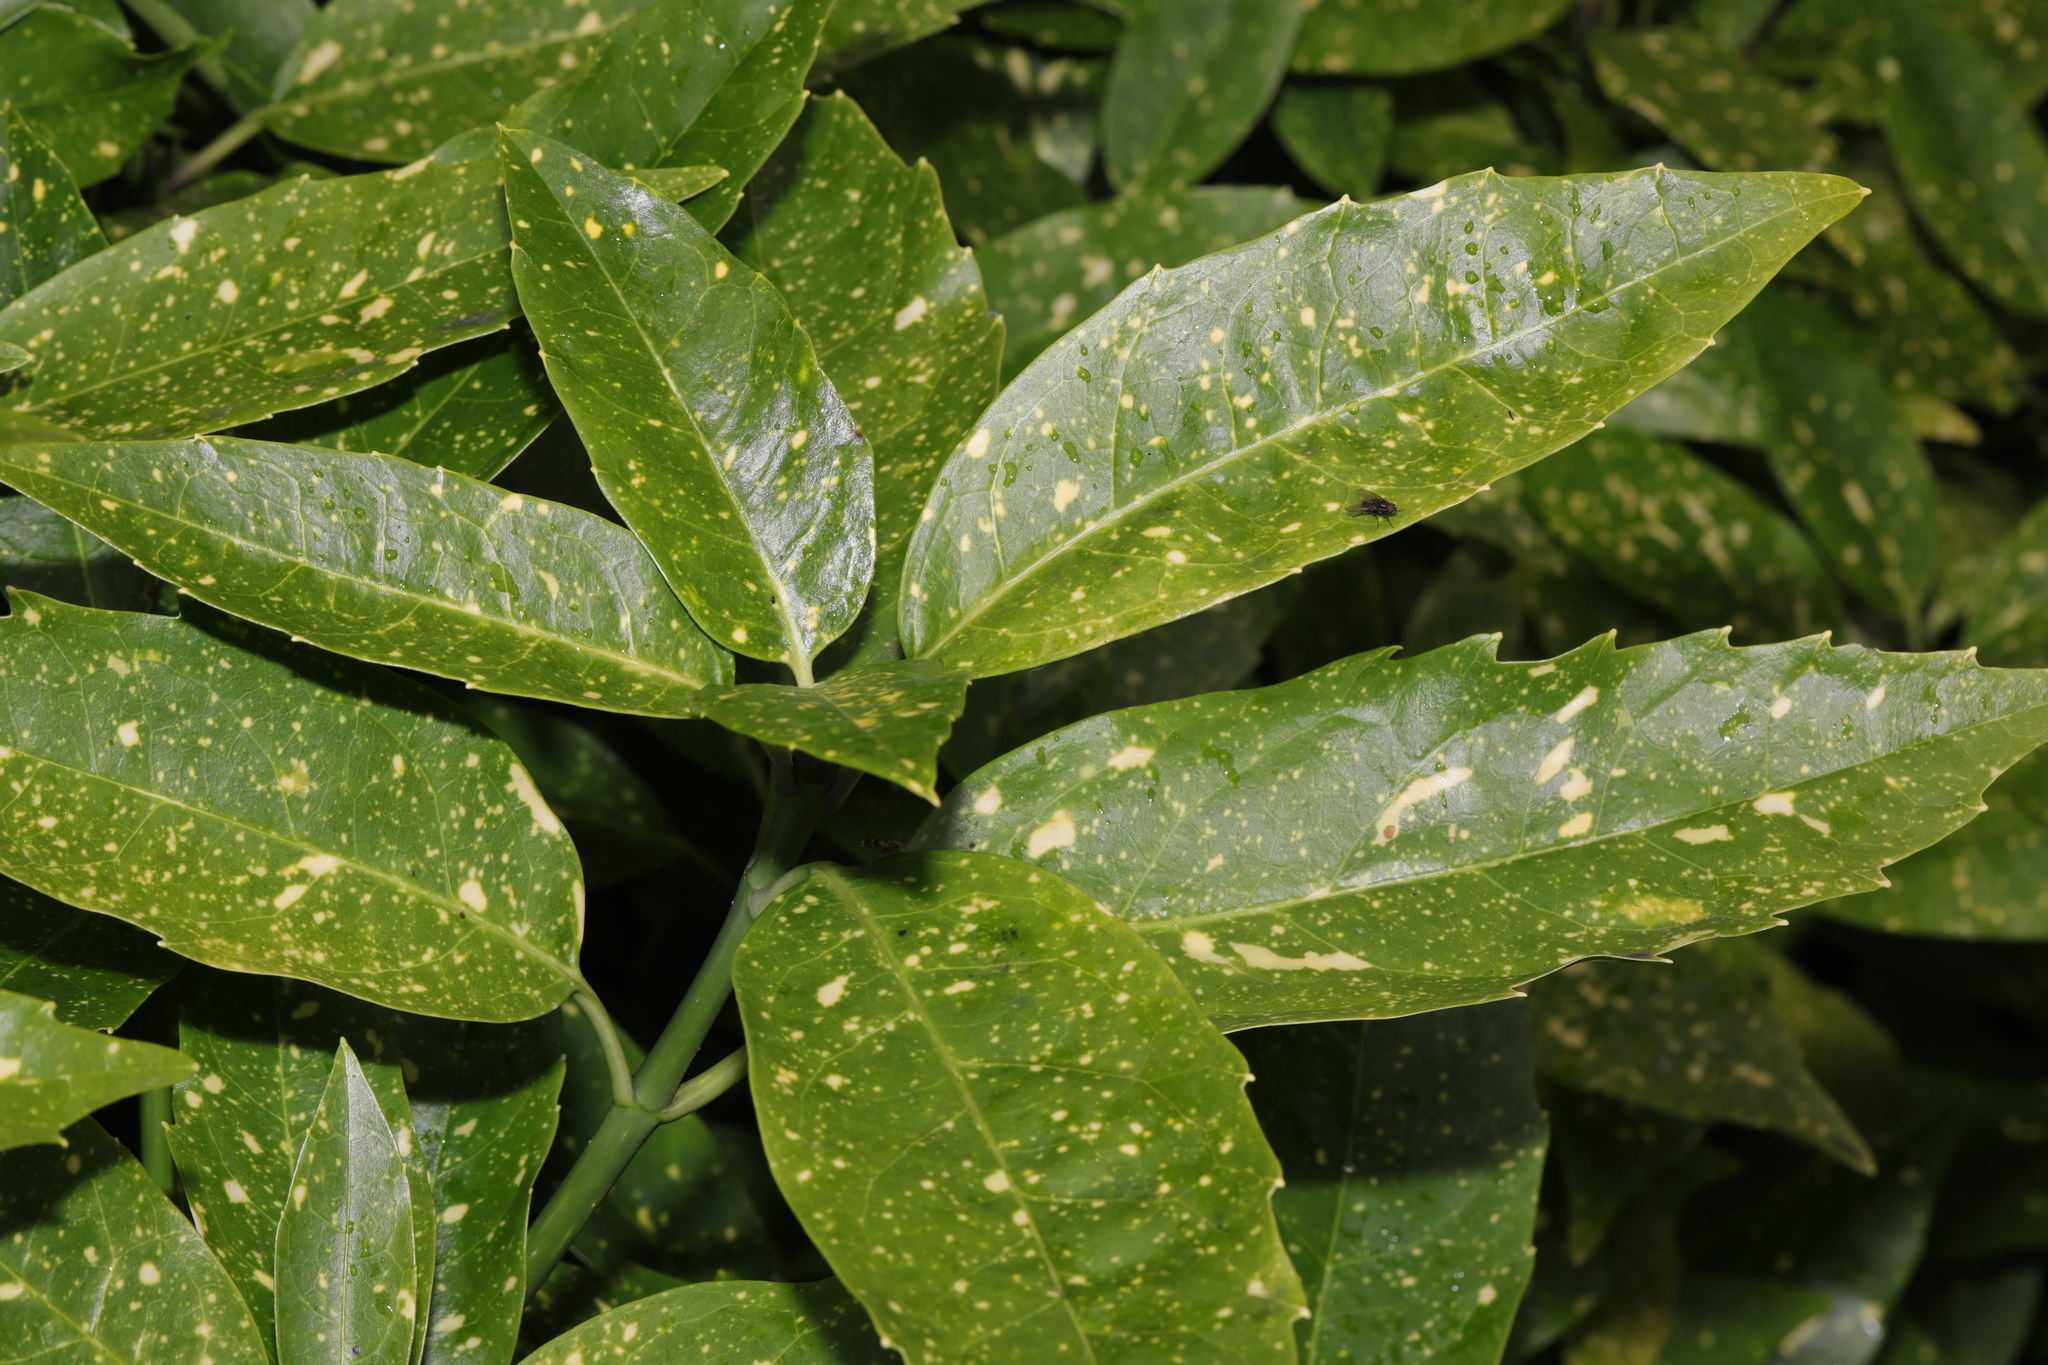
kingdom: Plantae
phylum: Tracheophyta
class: Magnoliopsida
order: Garryales
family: Garryaceae
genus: Aucuba
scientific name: Aucuba japonica
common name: Spotted-laurel
